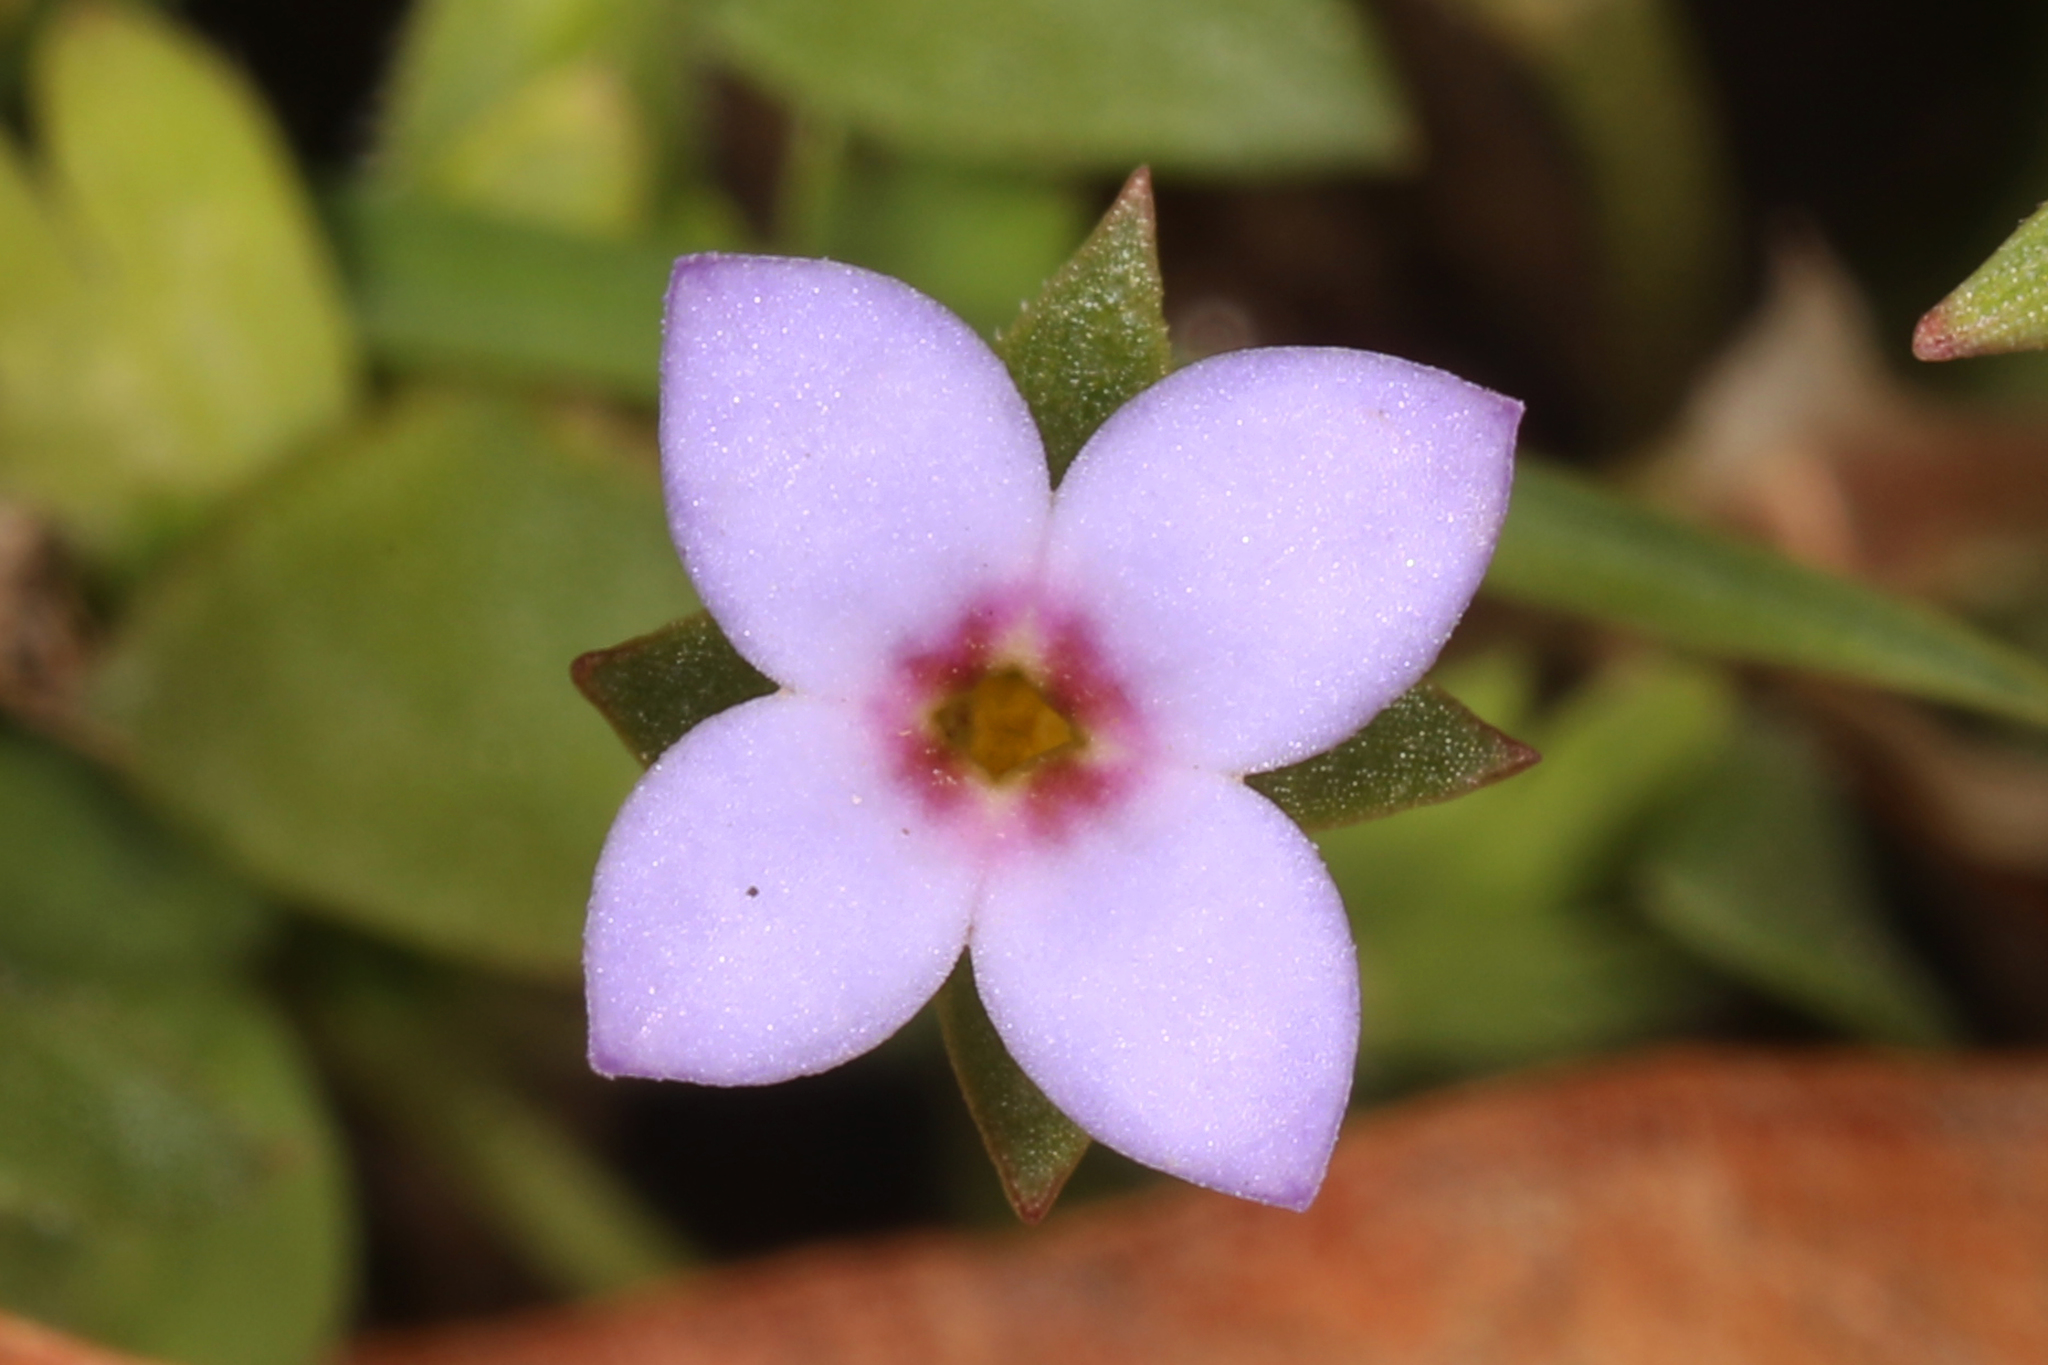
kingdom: Plantae
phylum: Tracheophyta
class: Magnoliopsida
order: Gentianales
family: Rubiaceae
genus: Houstonia
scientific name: Houstonia pusilla
